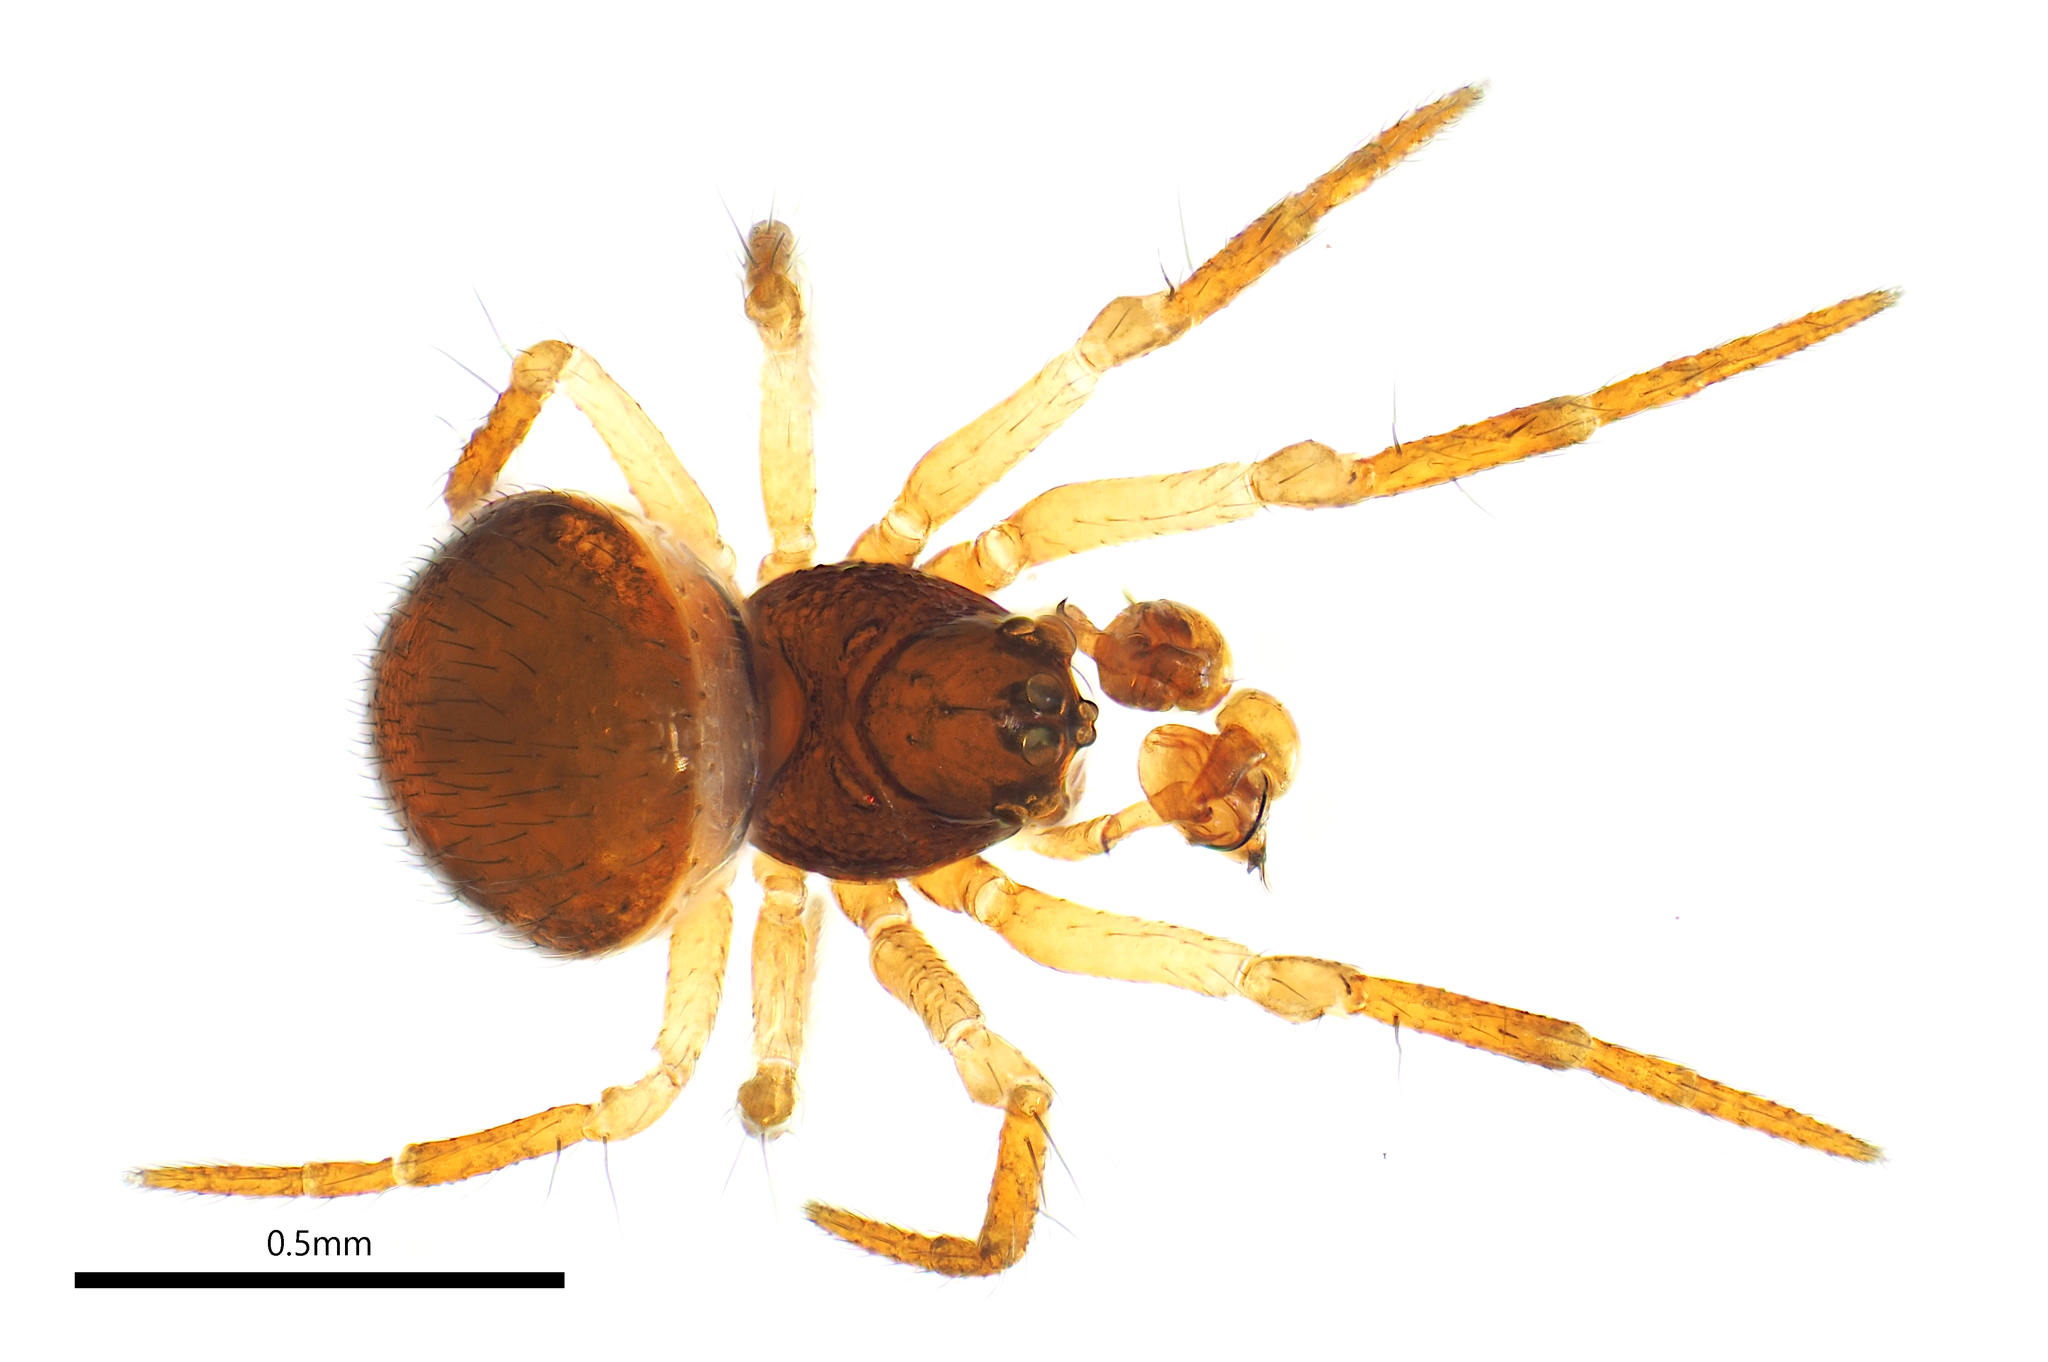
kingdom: Animalia
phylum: Arthropoda
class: Arachnida
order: Araneae
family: Anapidae
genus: Chasmocephalon
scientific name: Chasmocephalon iluka
